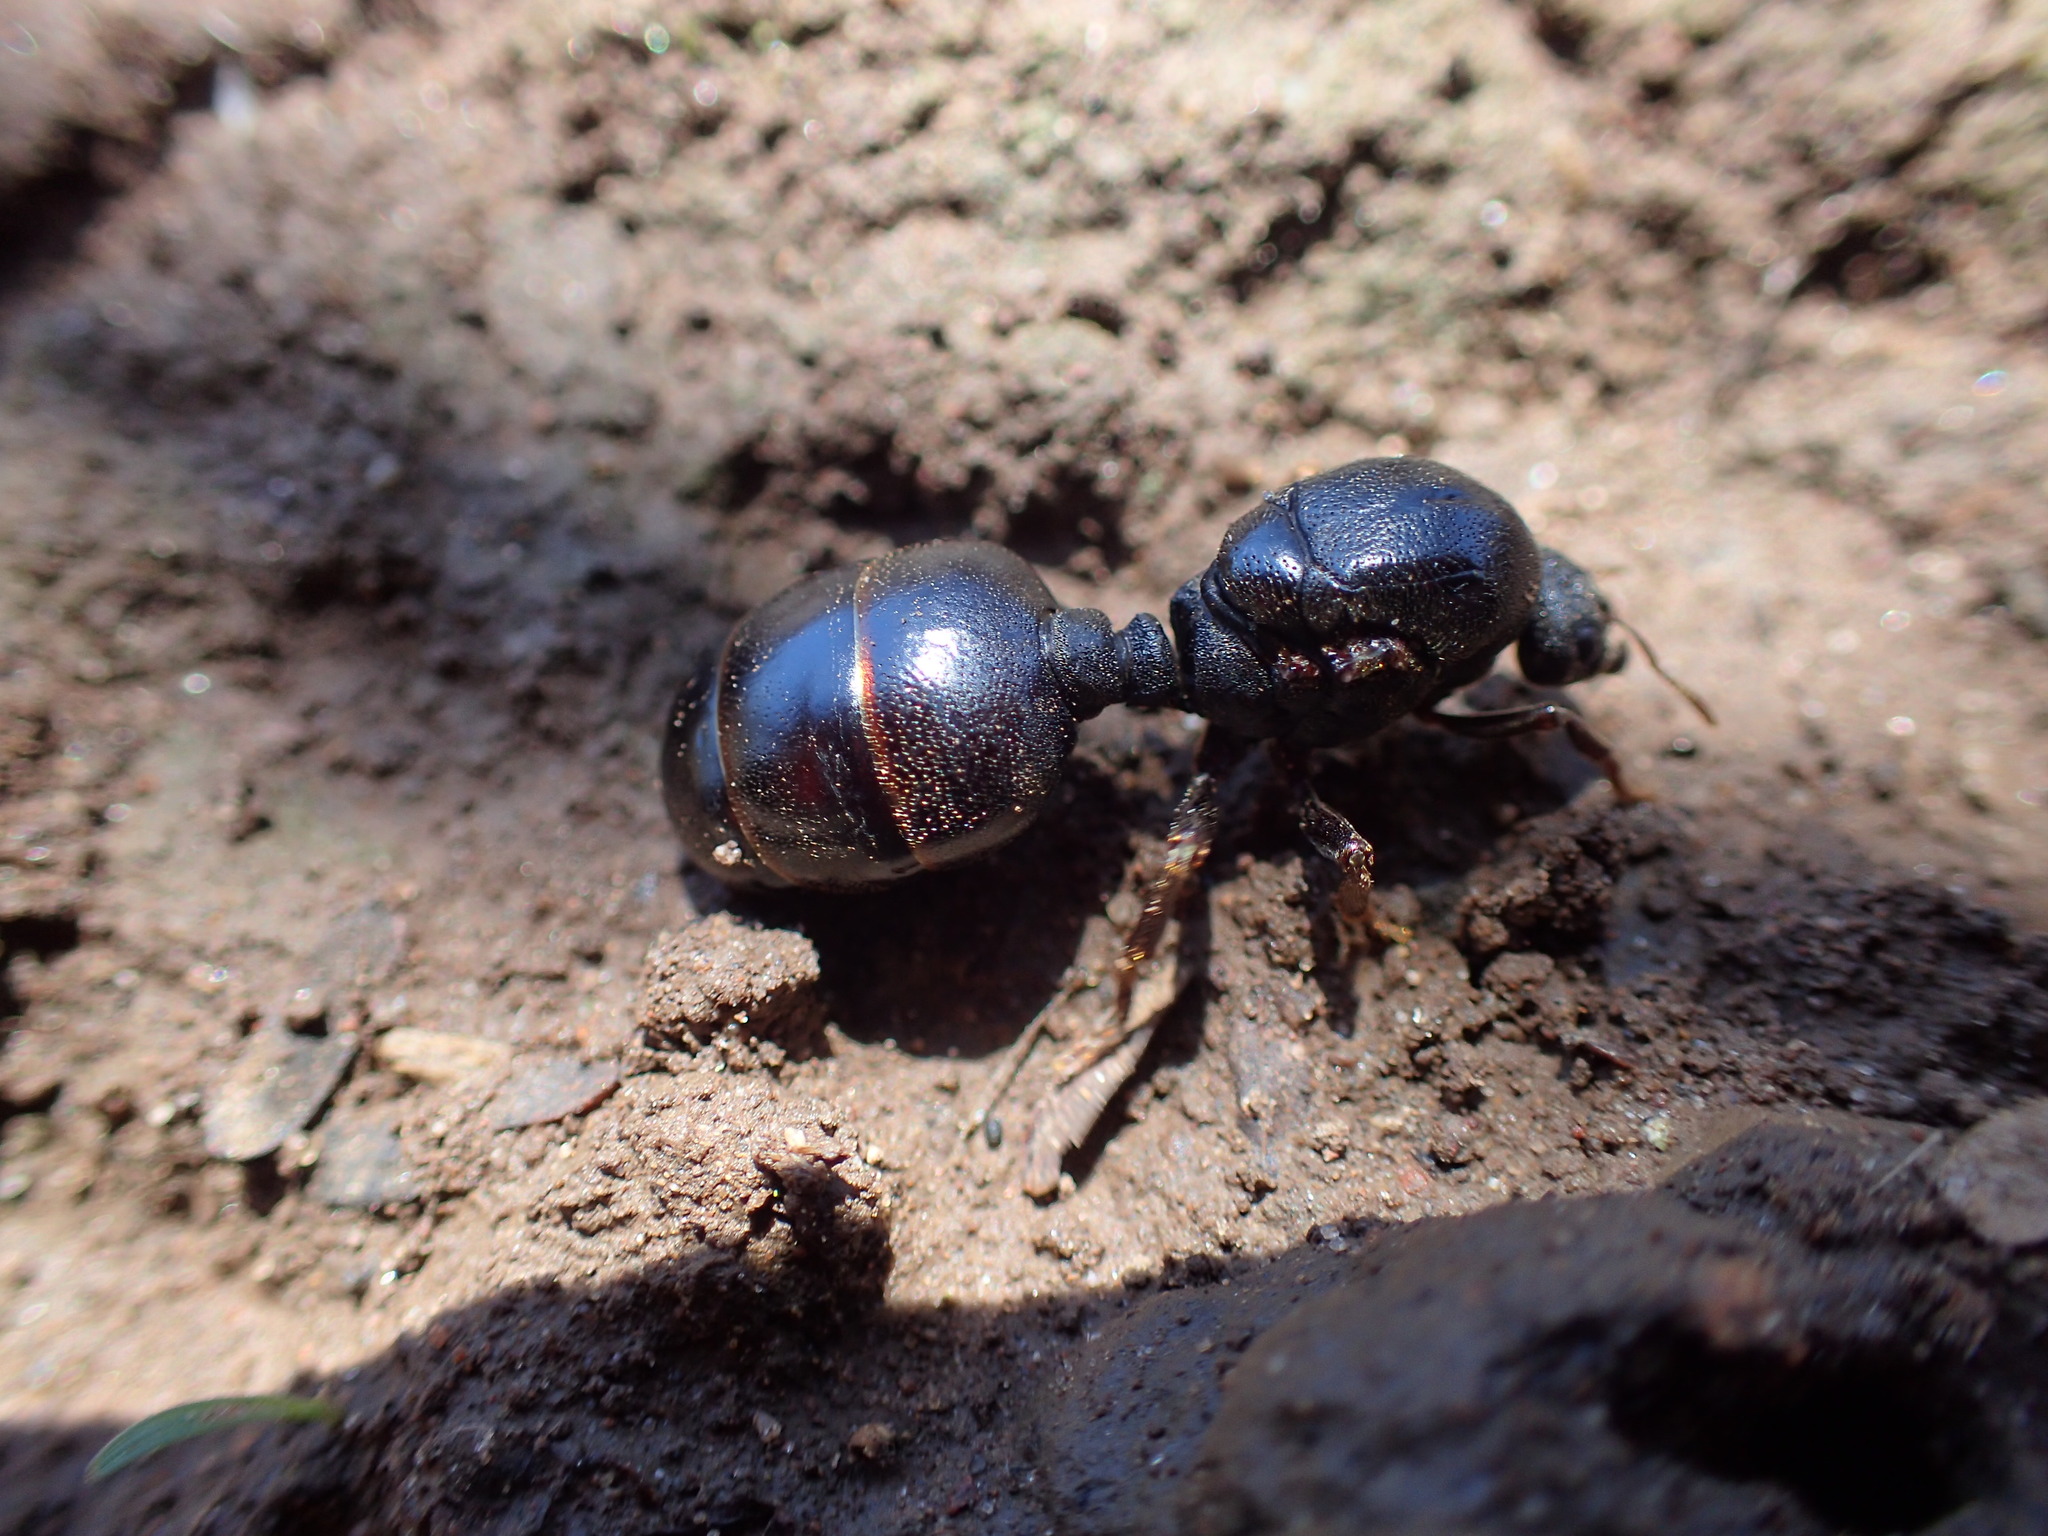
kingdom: Animalia
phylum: Arthropoda
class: Insecta
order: Hymenoptera
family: Formicidae
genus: Carebara
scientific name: Carebara vidua
